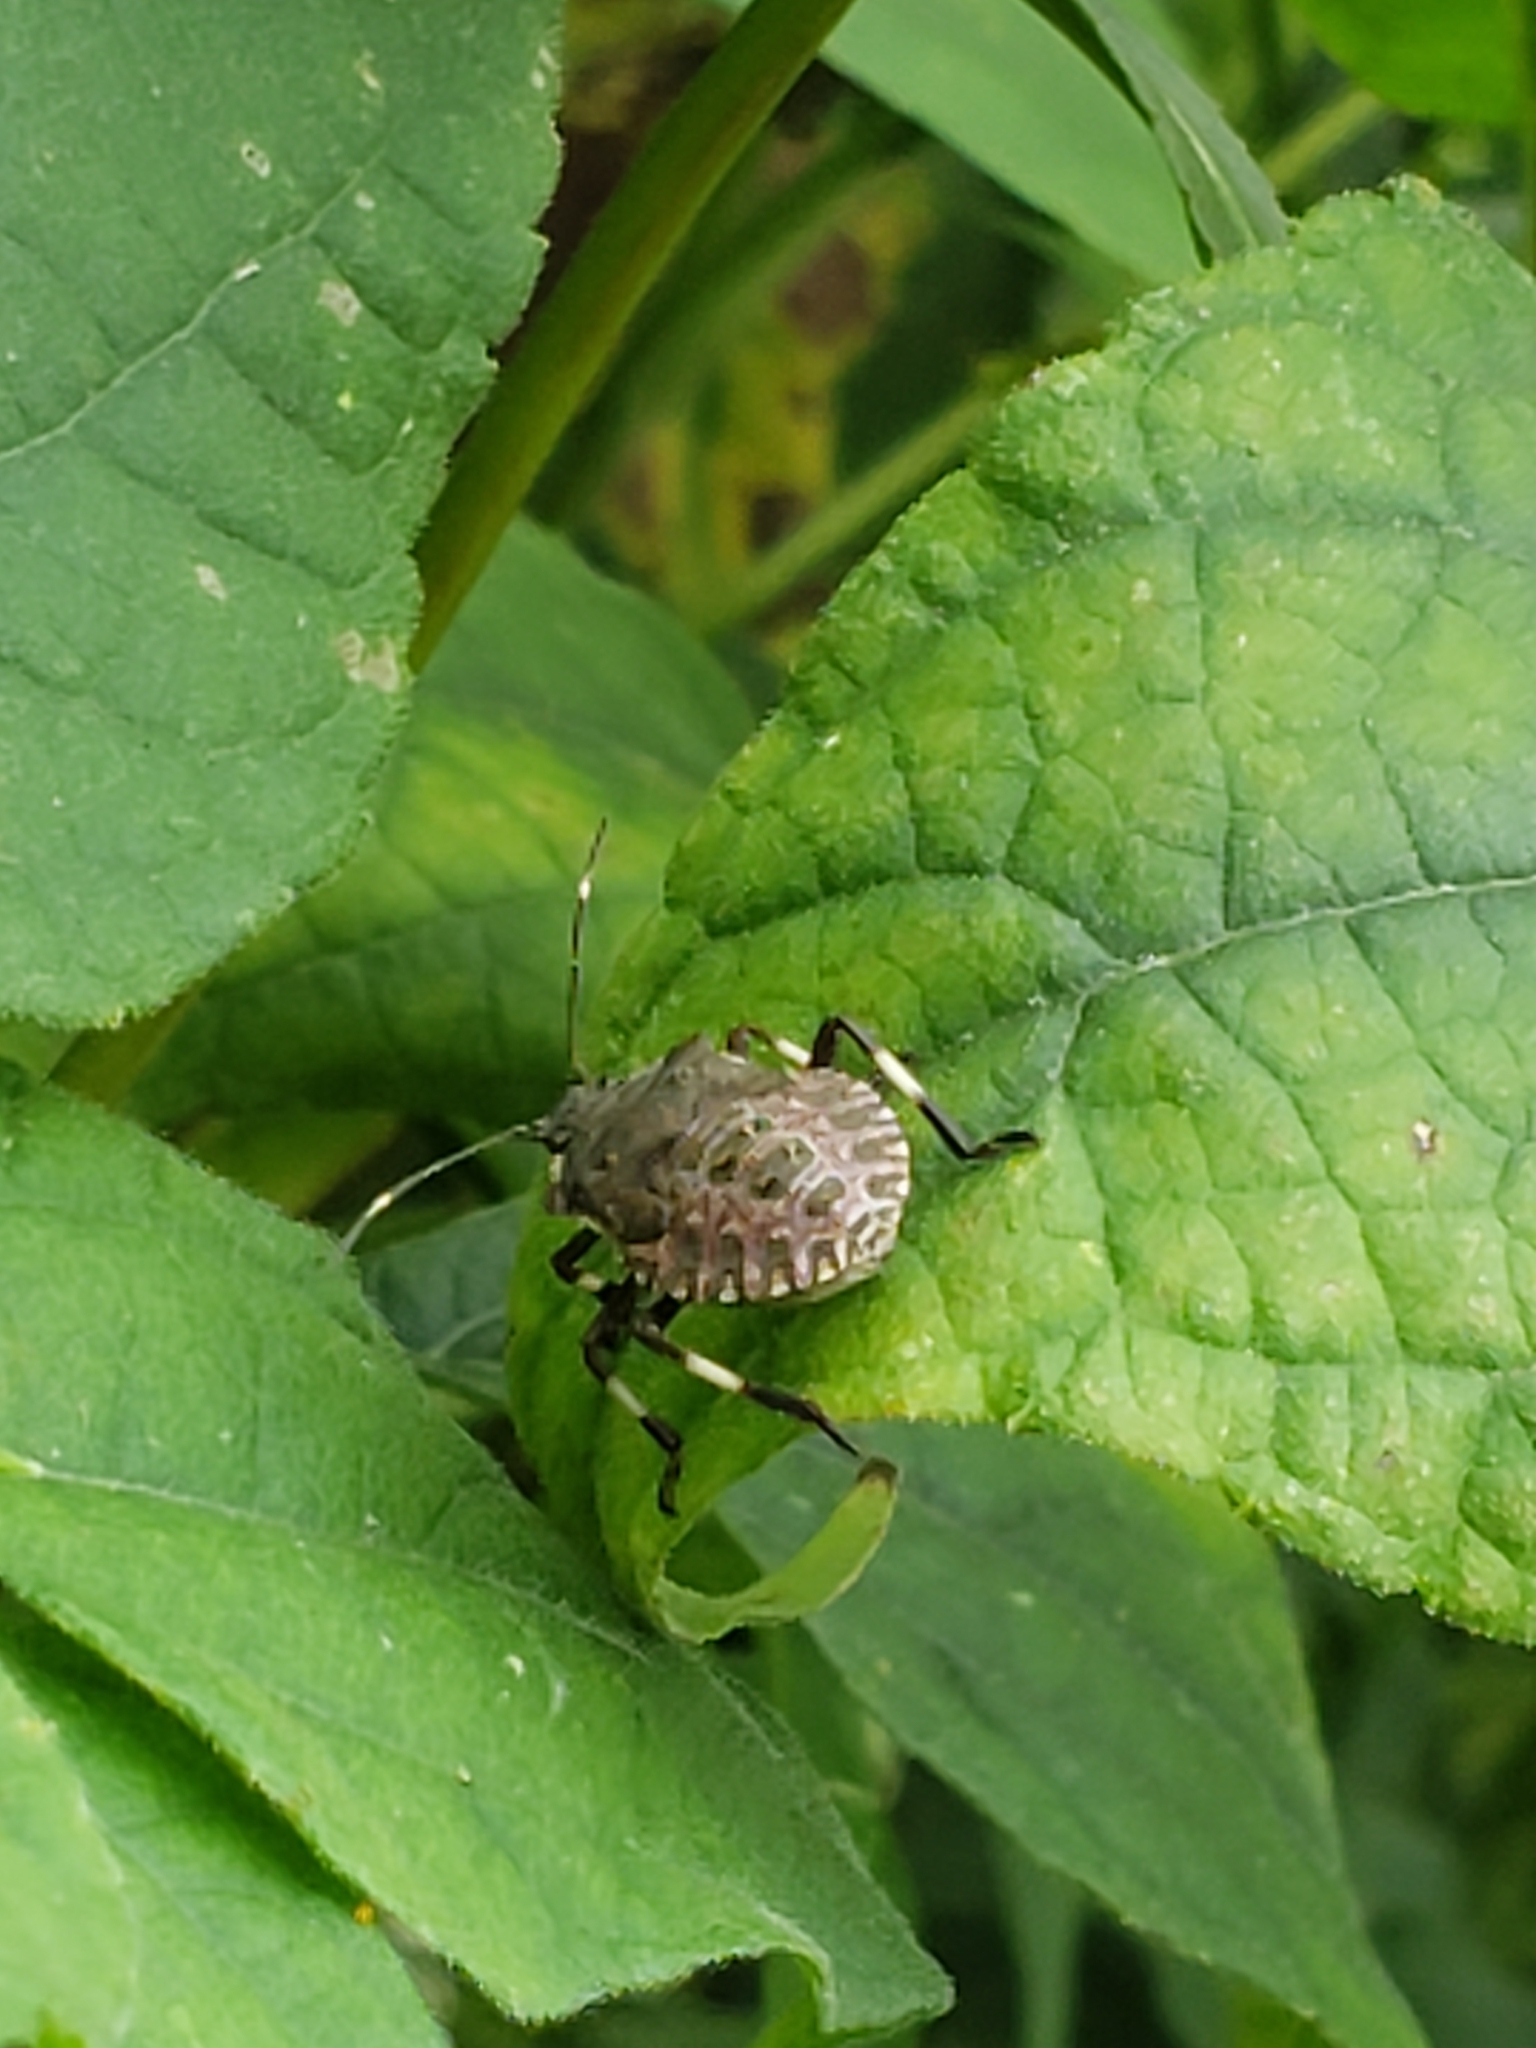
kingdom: Animalia
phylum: Arthropoda
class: Insecta
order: Hemiptera
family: Pentatomidae
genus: Halyomorpha
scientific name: Halyomorpha halys
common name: Brown marmorated stink bug
